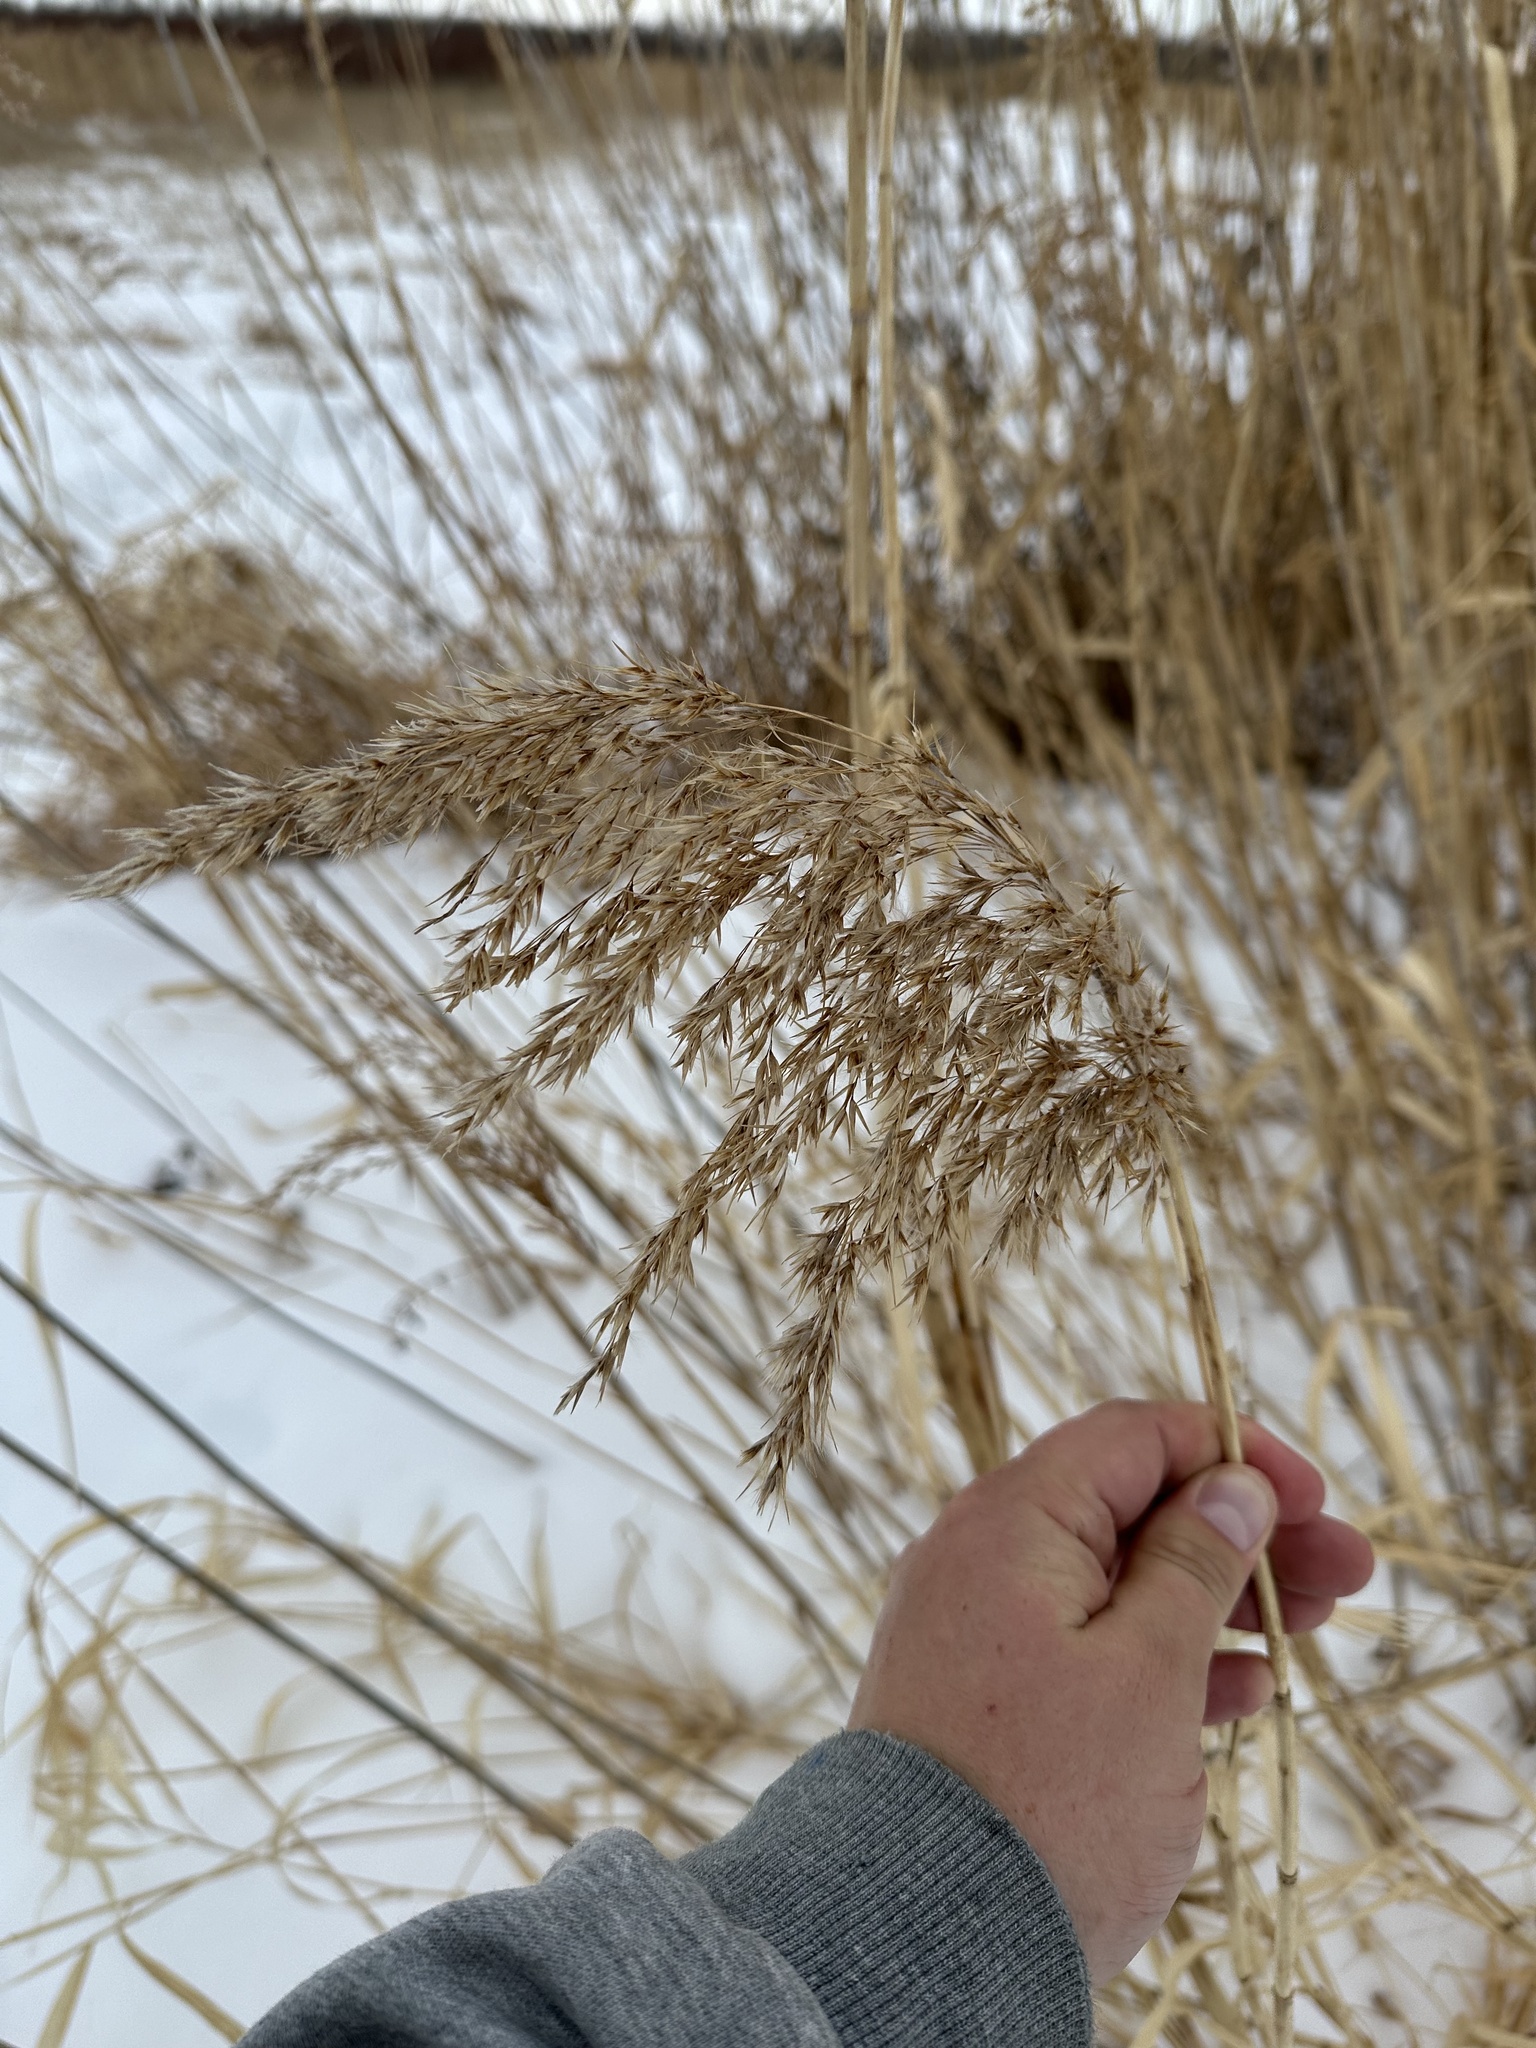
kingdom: Plantae
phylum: Tracheophyta
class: Liliopsida
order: Poales
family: Poaceae
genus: Phragmites
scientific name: Phragmites australis
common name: Common reed
